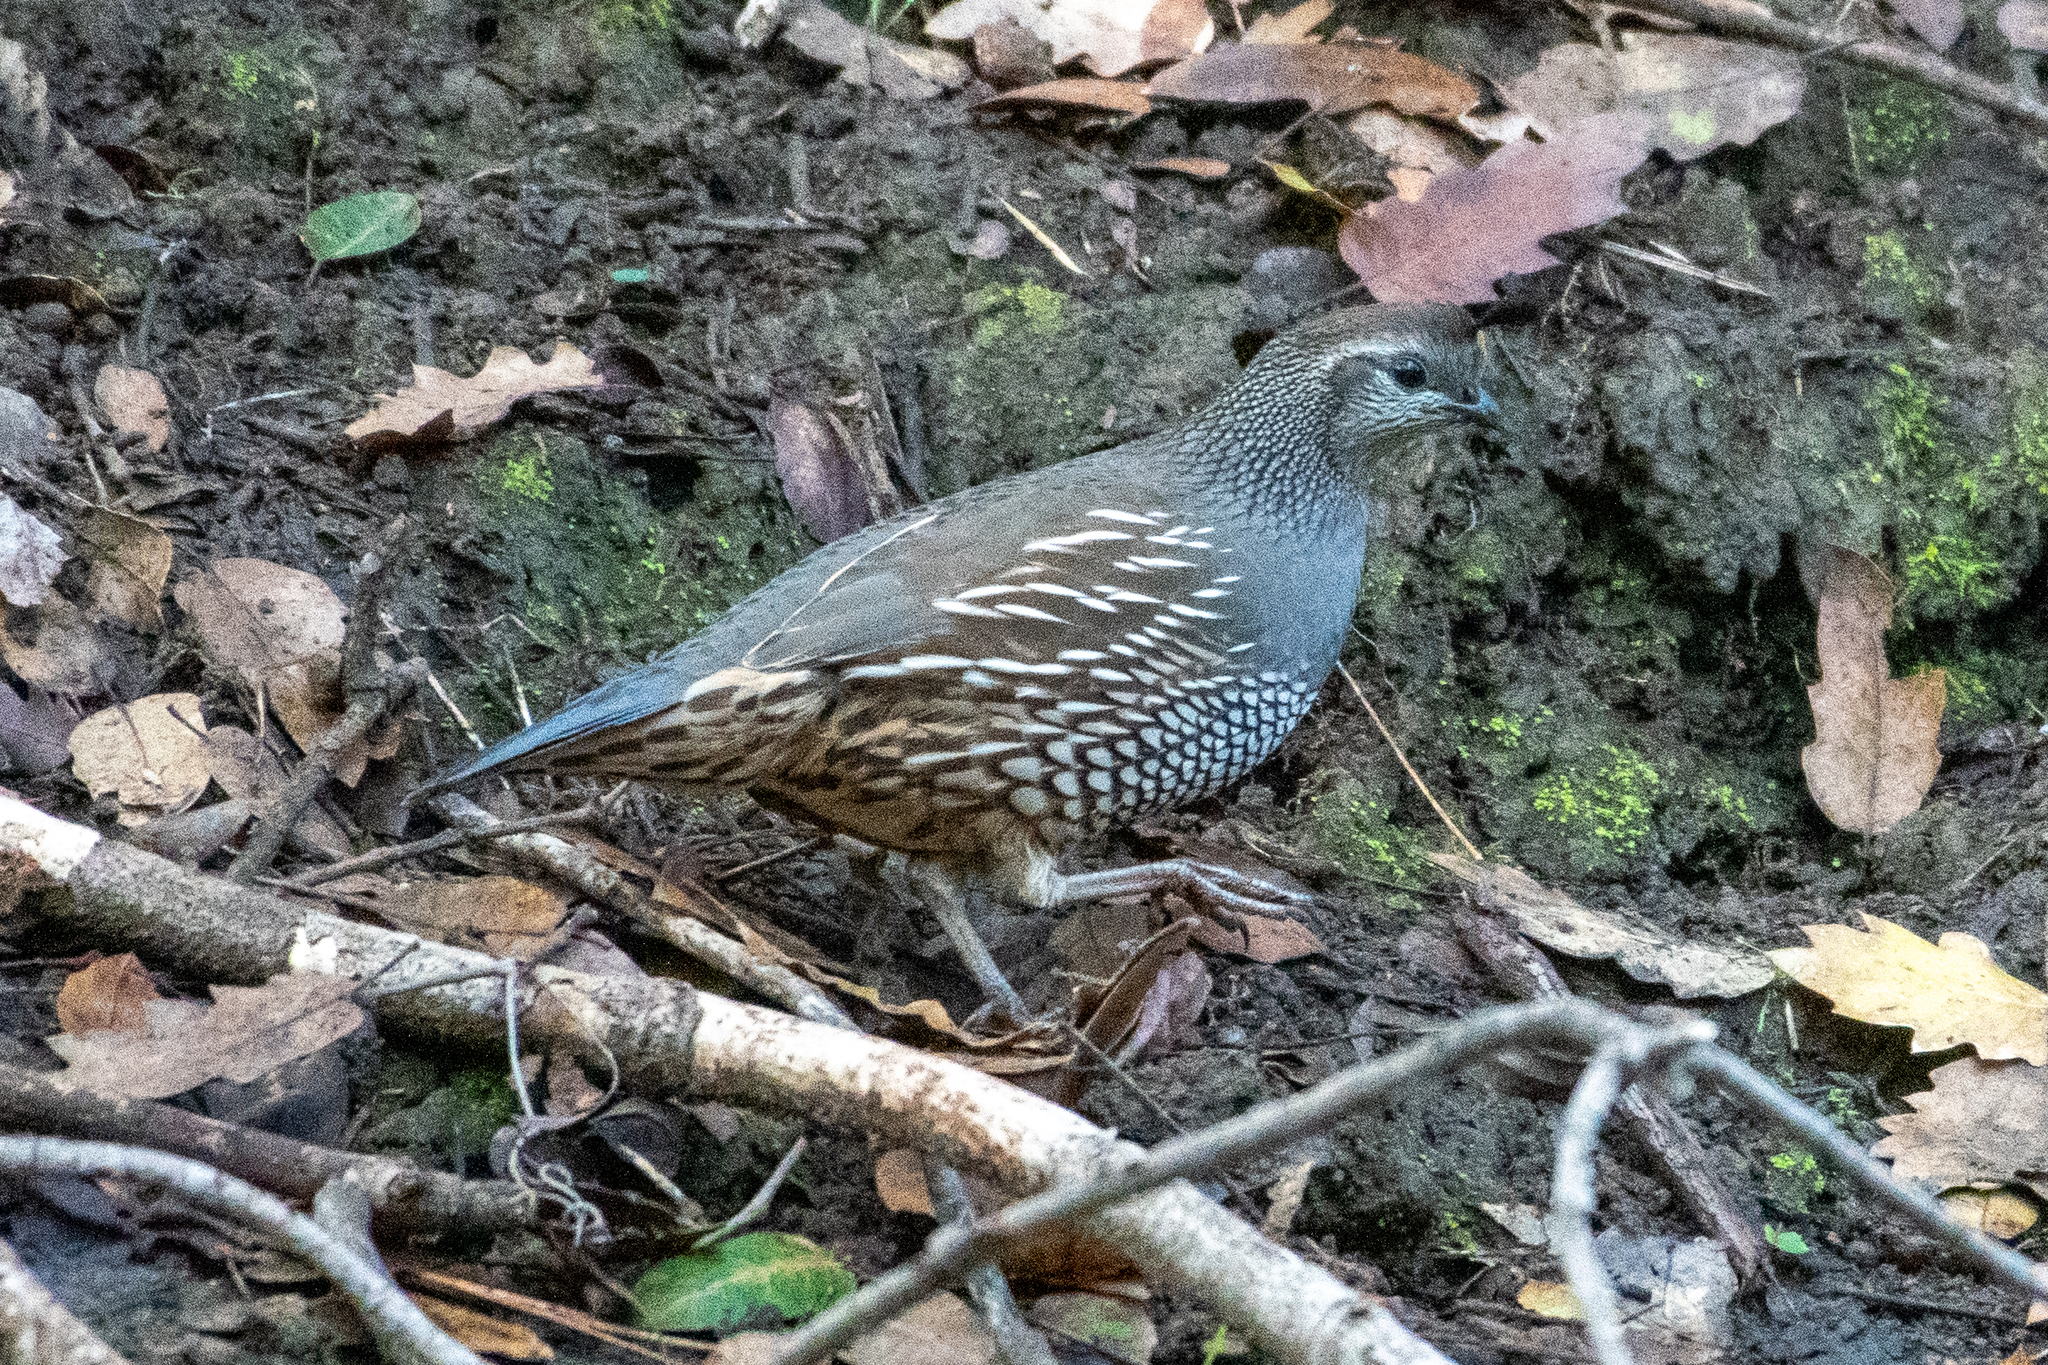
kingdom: Animalia
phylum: Chordata
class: Aves
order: Galliformes
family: Odontophoridae
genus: Callipepla
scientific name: Callipepla californica
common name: California quail
